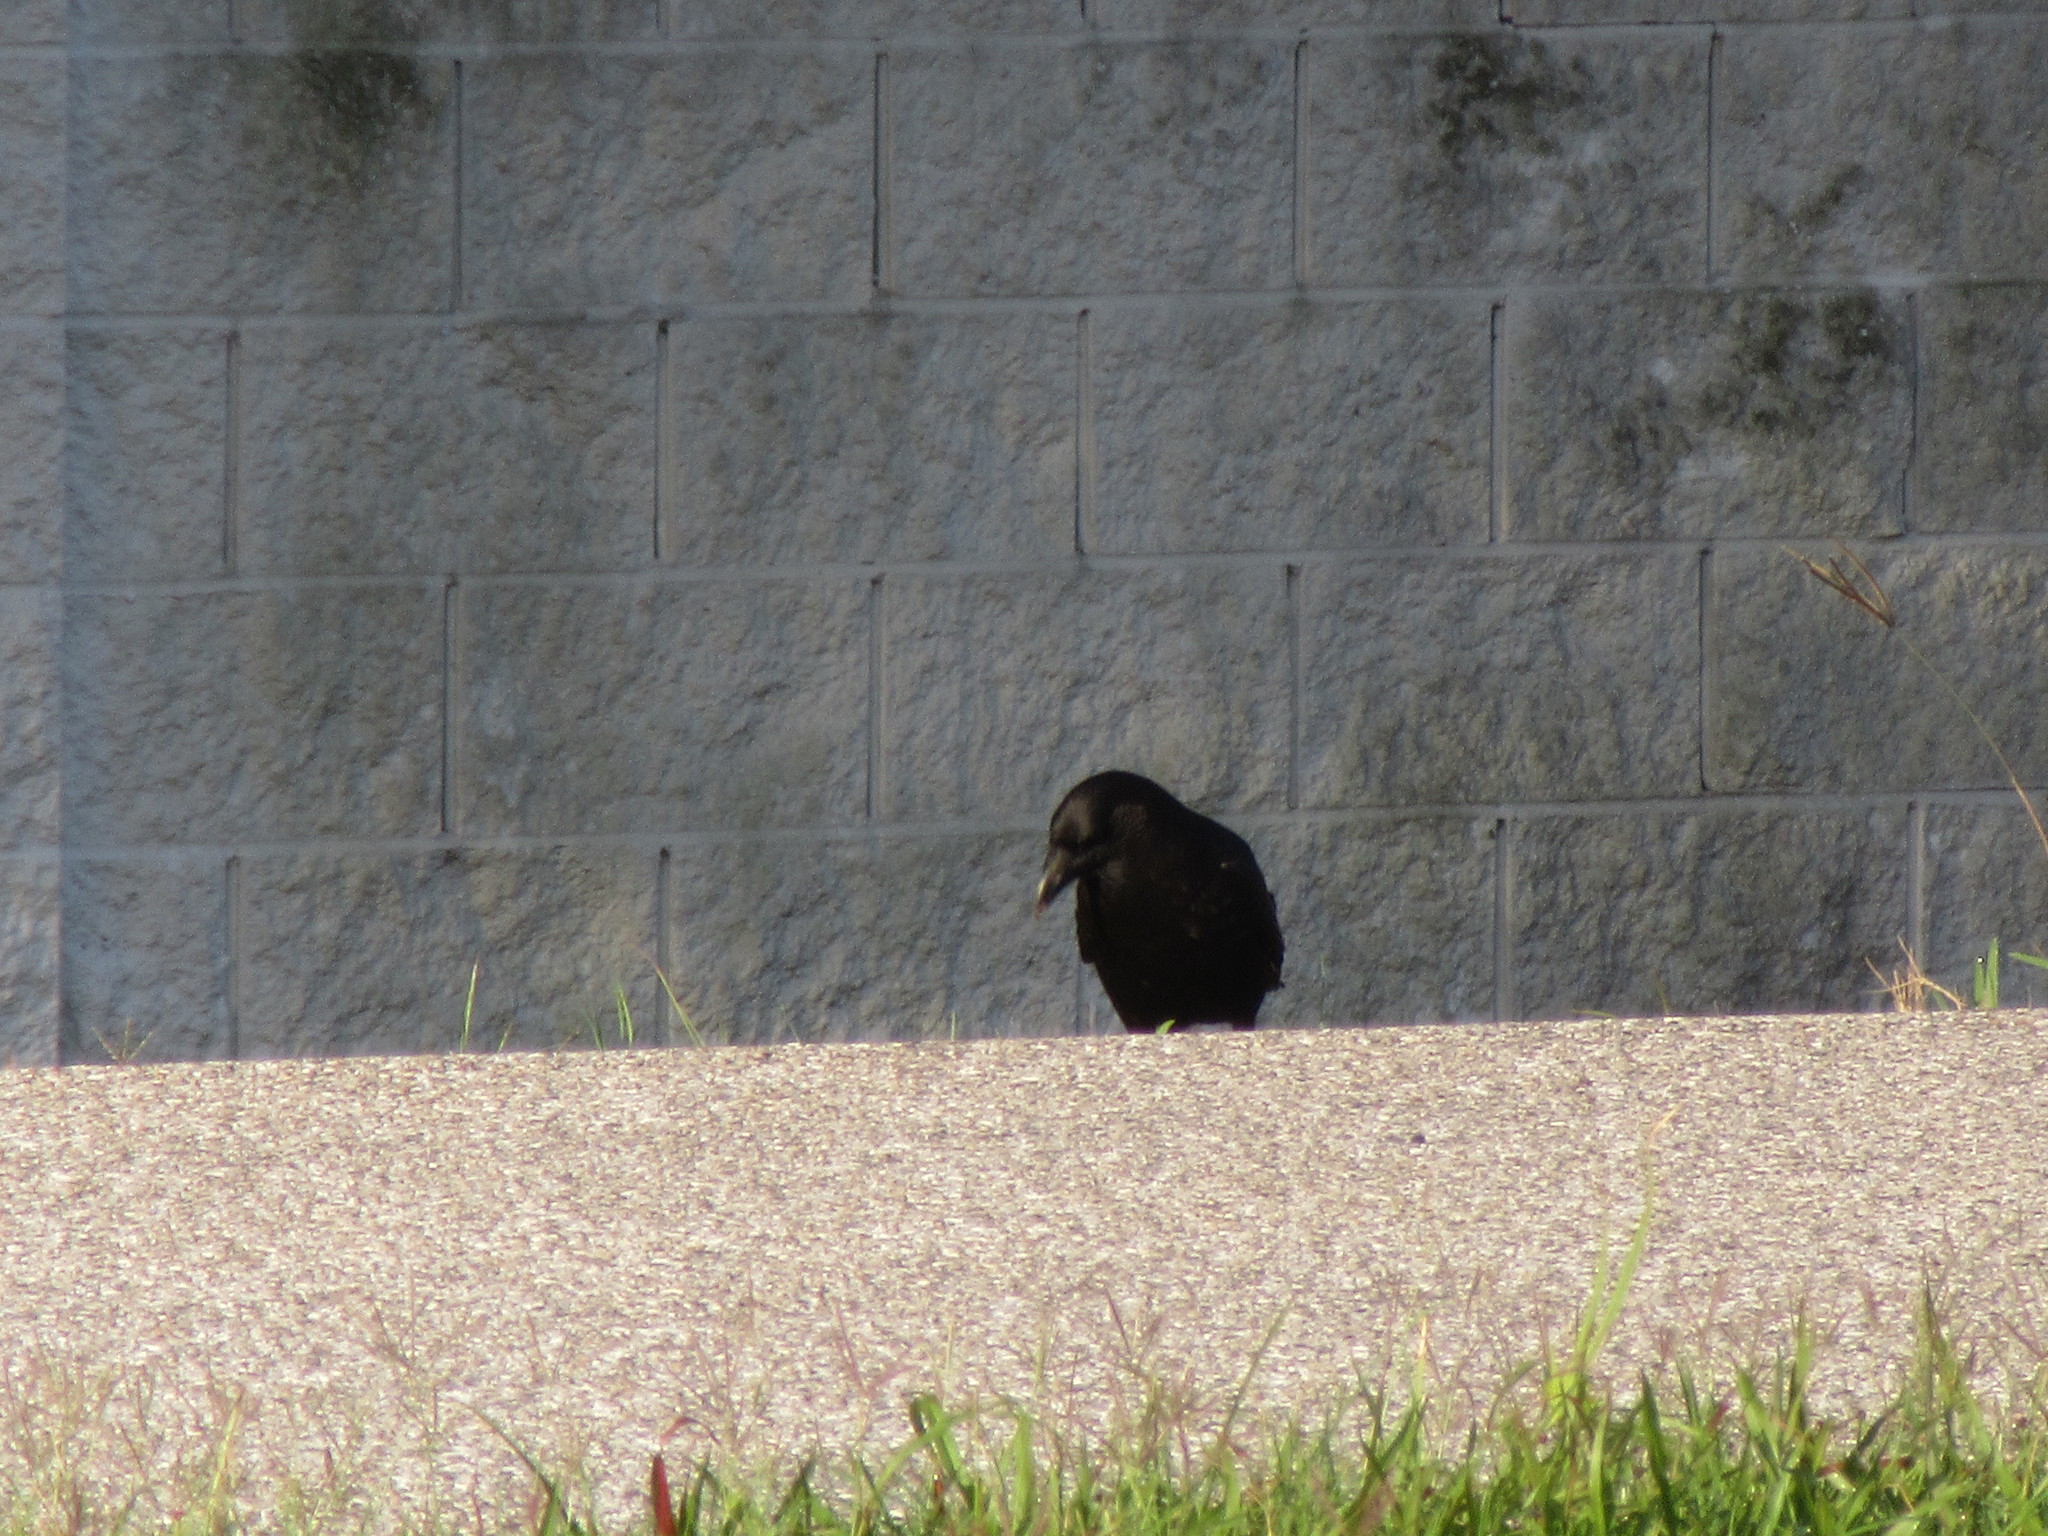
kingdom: Animalia
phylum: Chordata
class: Aves
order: Passeriformes
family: Corvidae
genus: Corvus
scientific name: Corvus brachyrhynchos
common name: American crow
